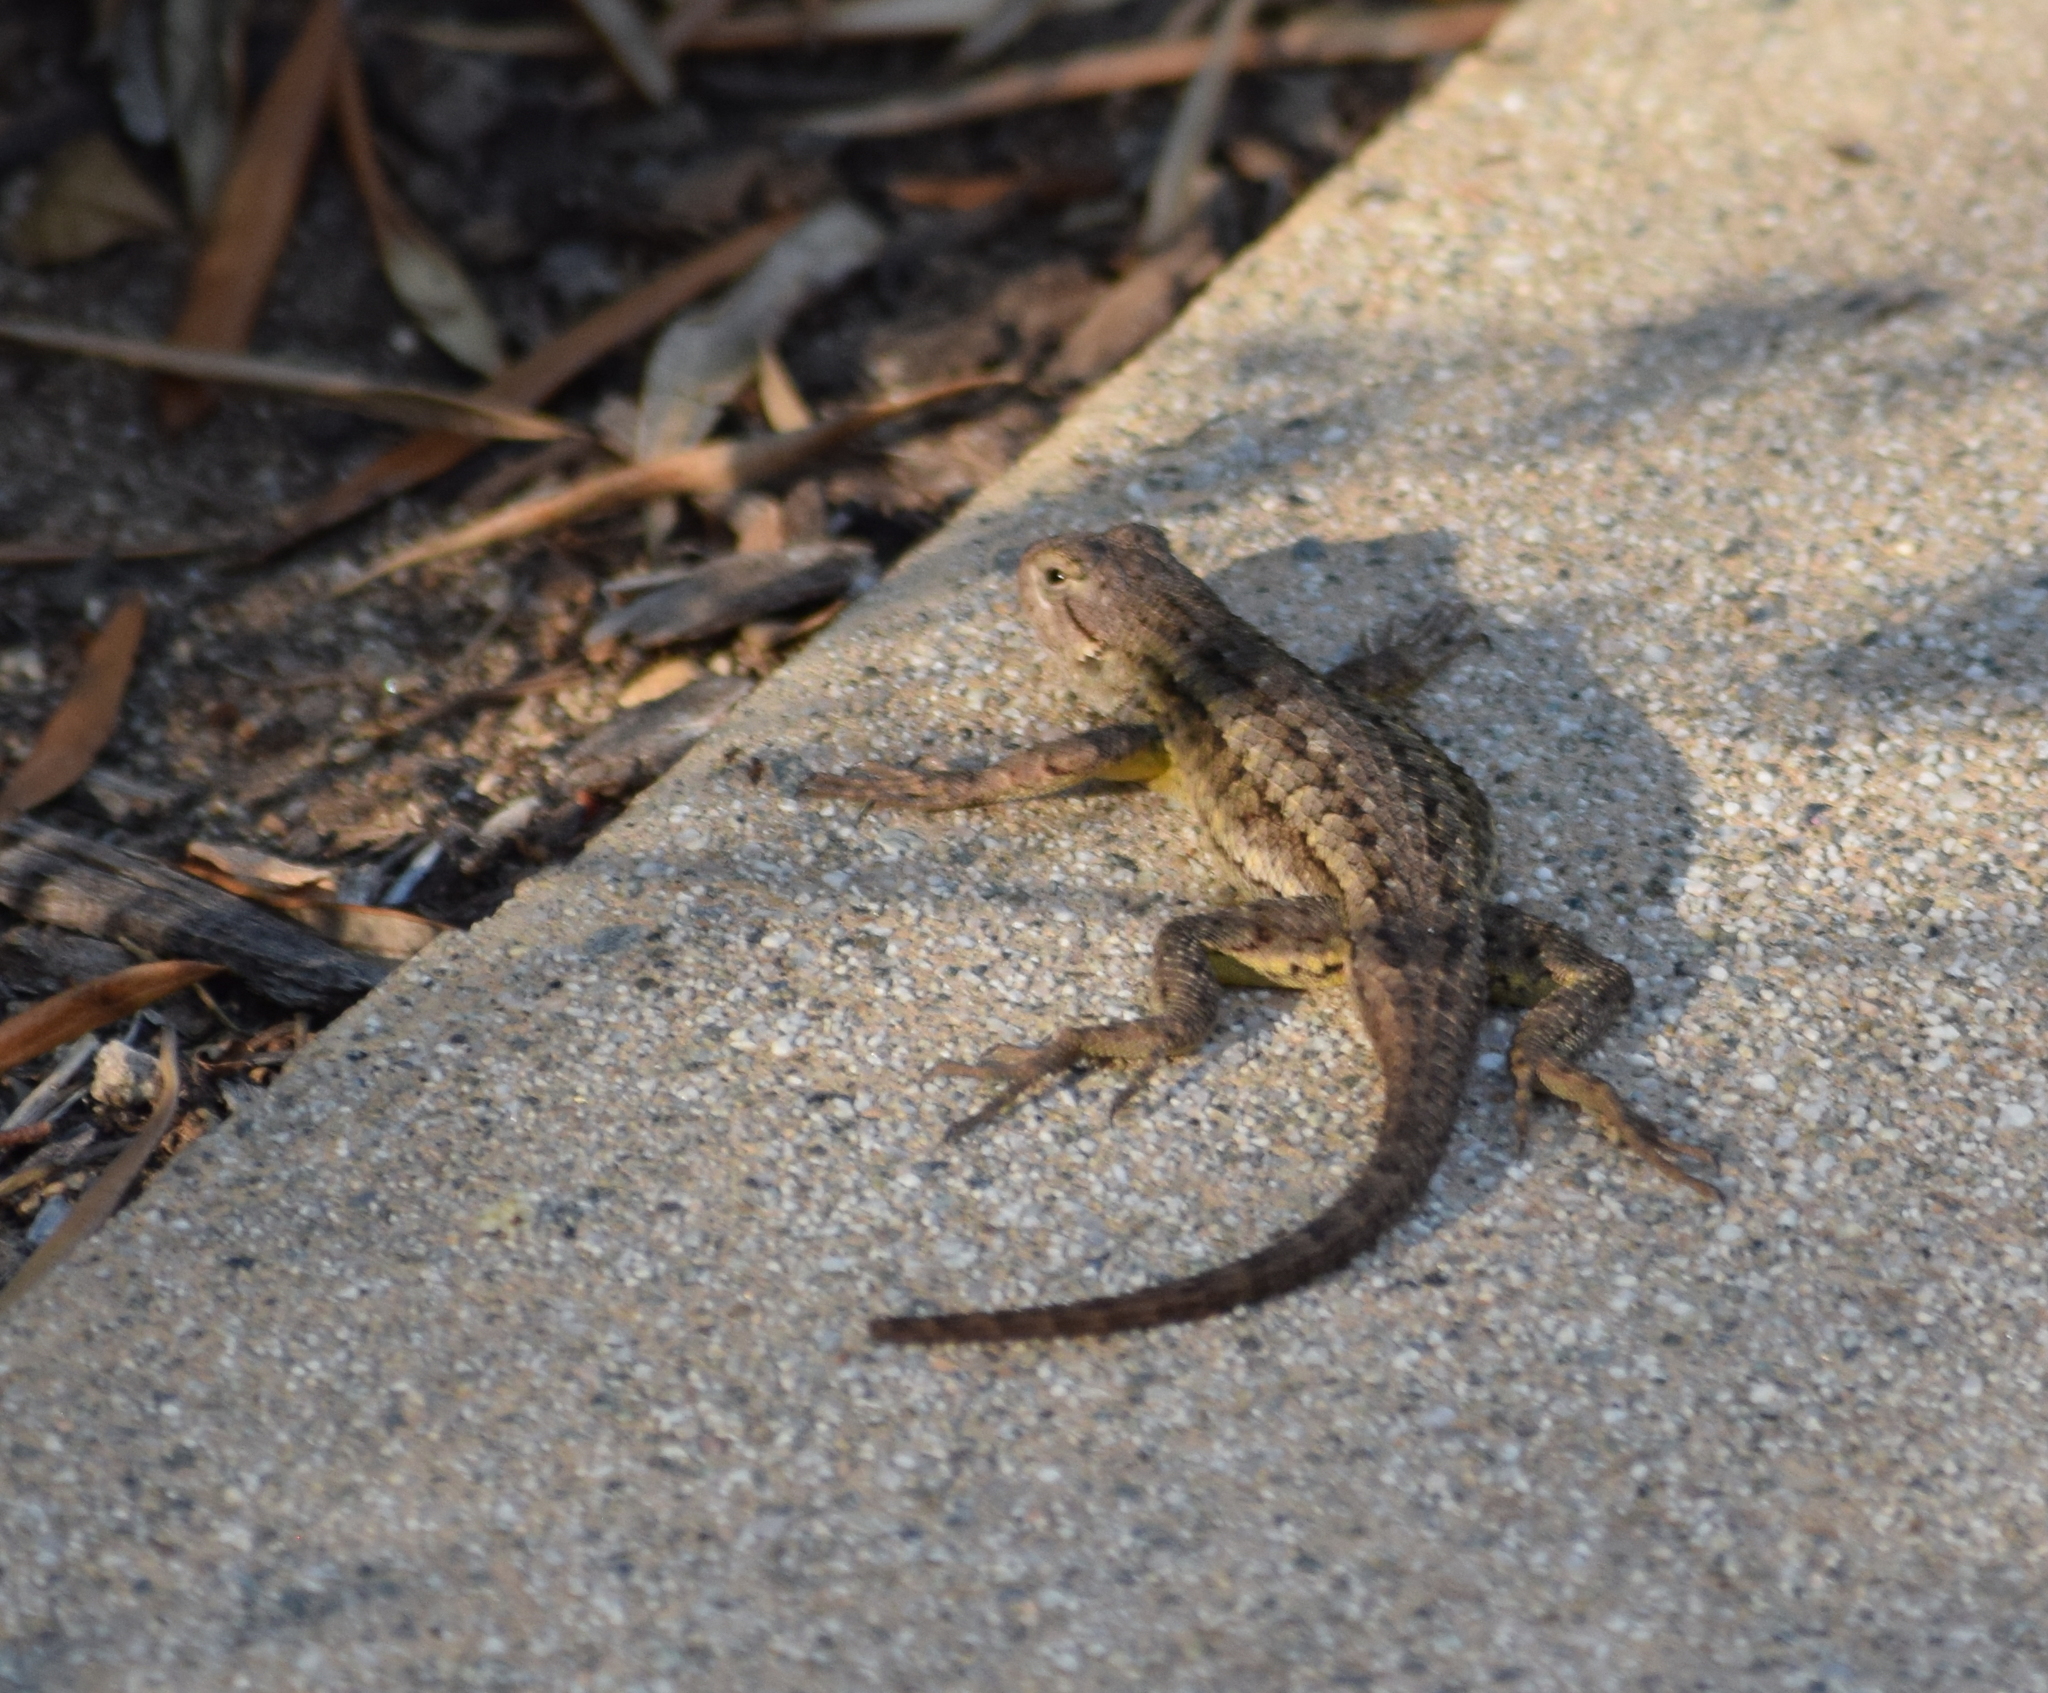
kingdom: Animalia
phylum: Chordata
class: Squamata
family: Phrynosomatidae
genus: Sceloporus
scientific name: Sceloporus occidentalis
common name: Western fence lizard
